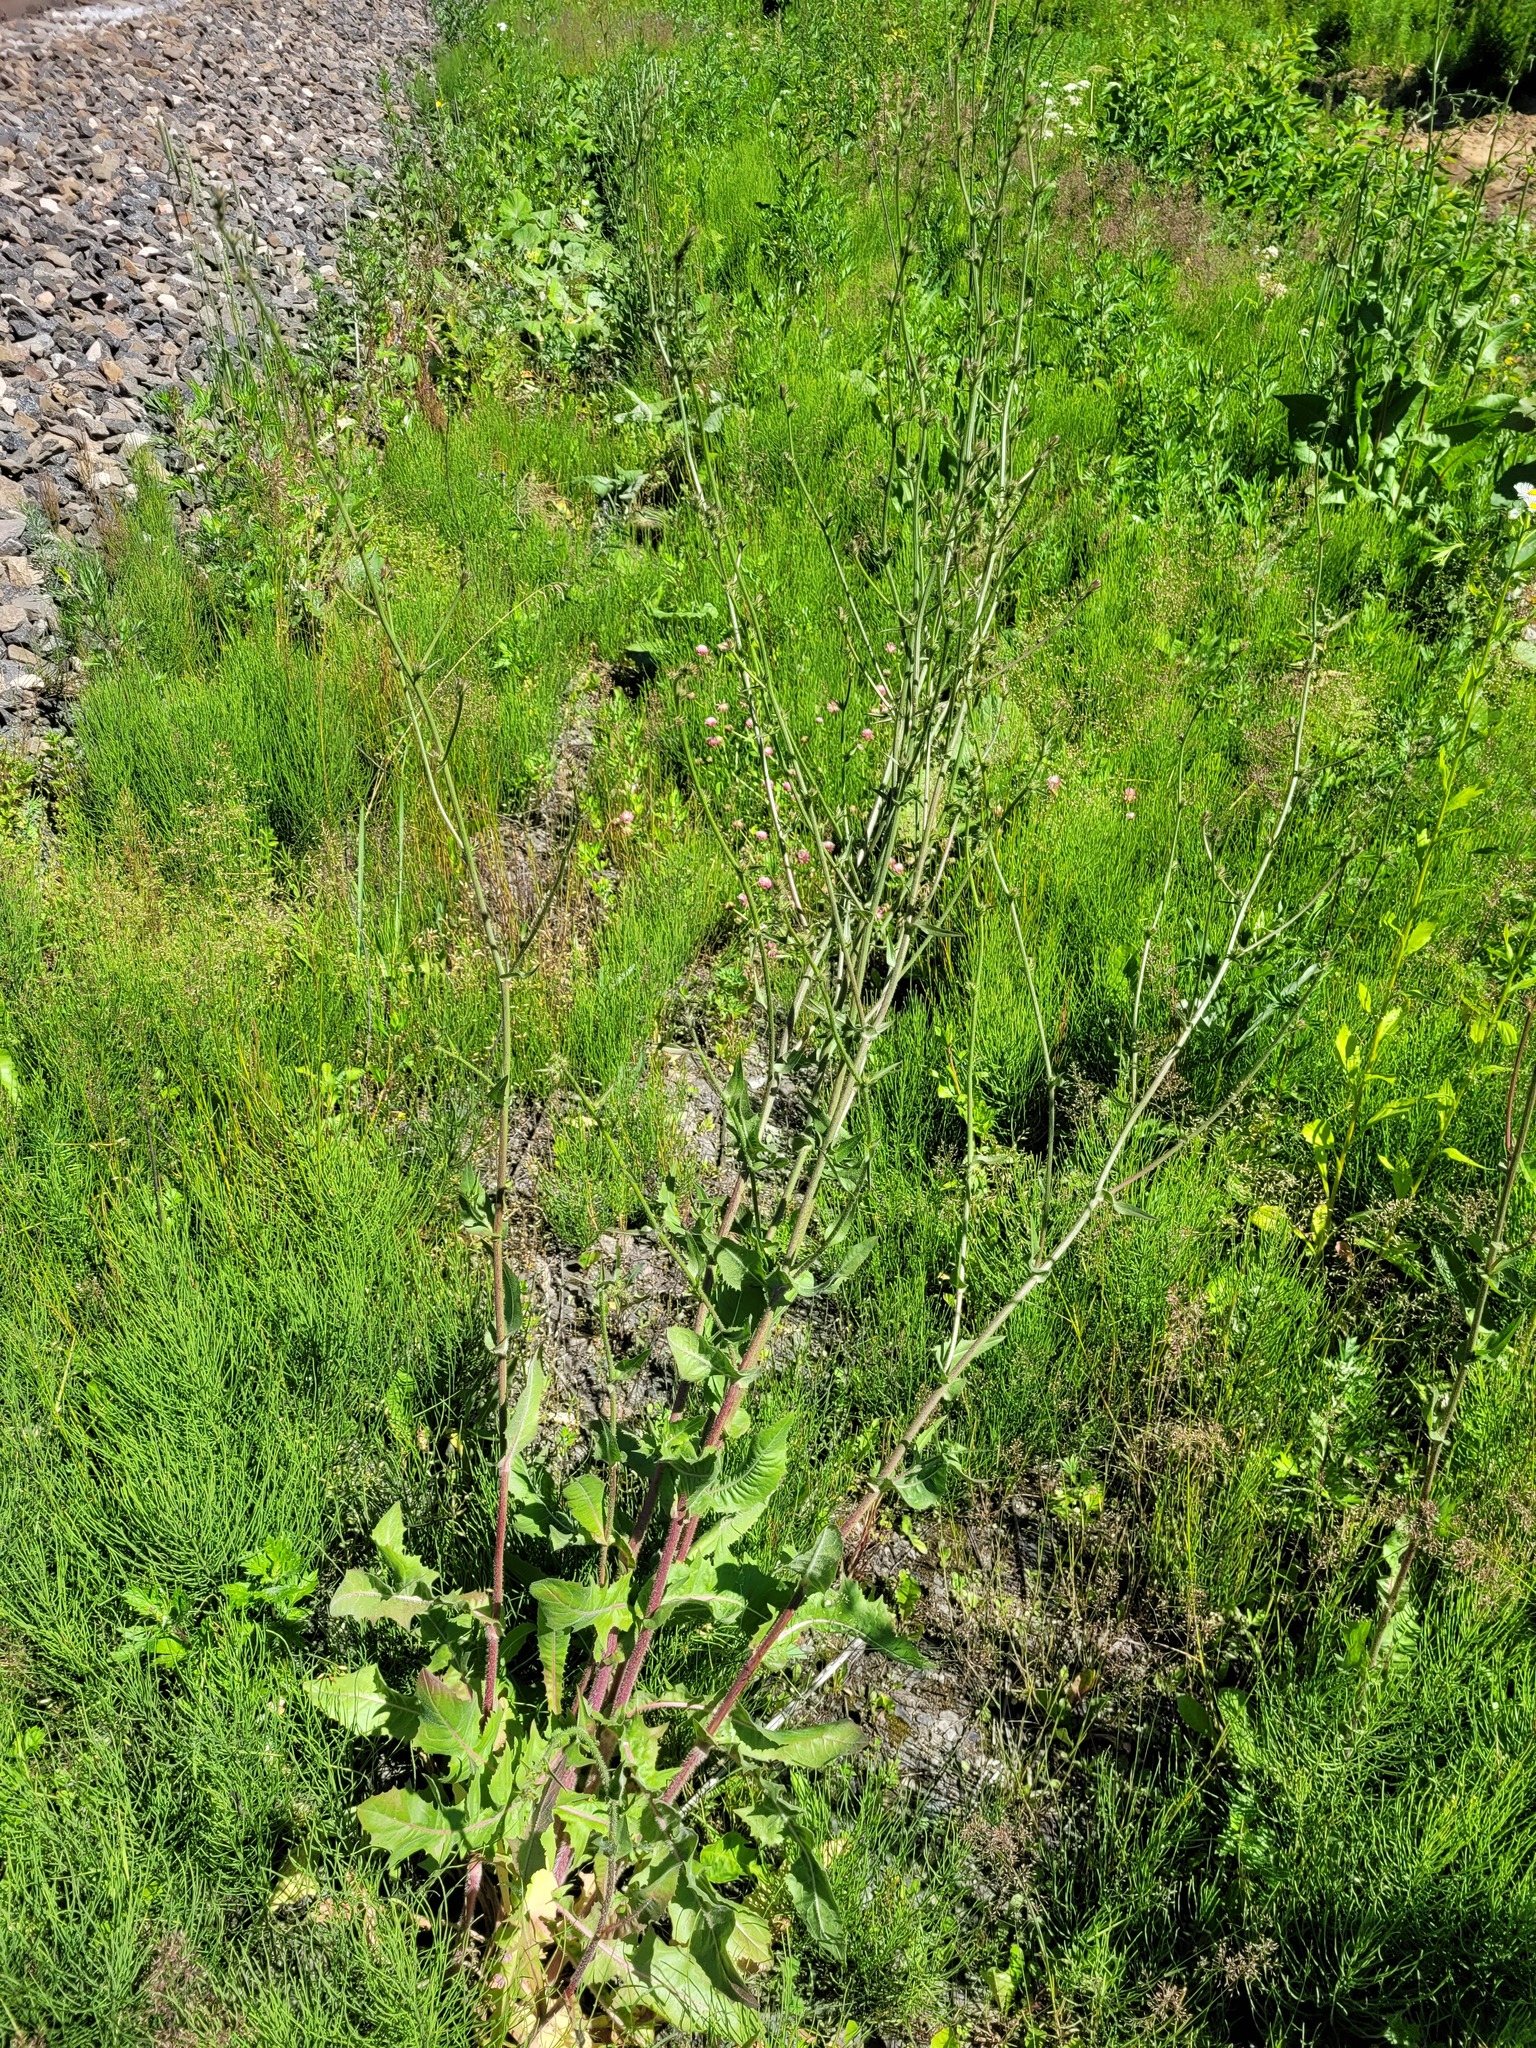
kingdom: Plantae
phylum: Tracheophyta
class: Magnoliopsida
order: Asterales
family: Asteraceae
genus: Cichorium
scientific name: Cichorium intybus
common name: Chicory
